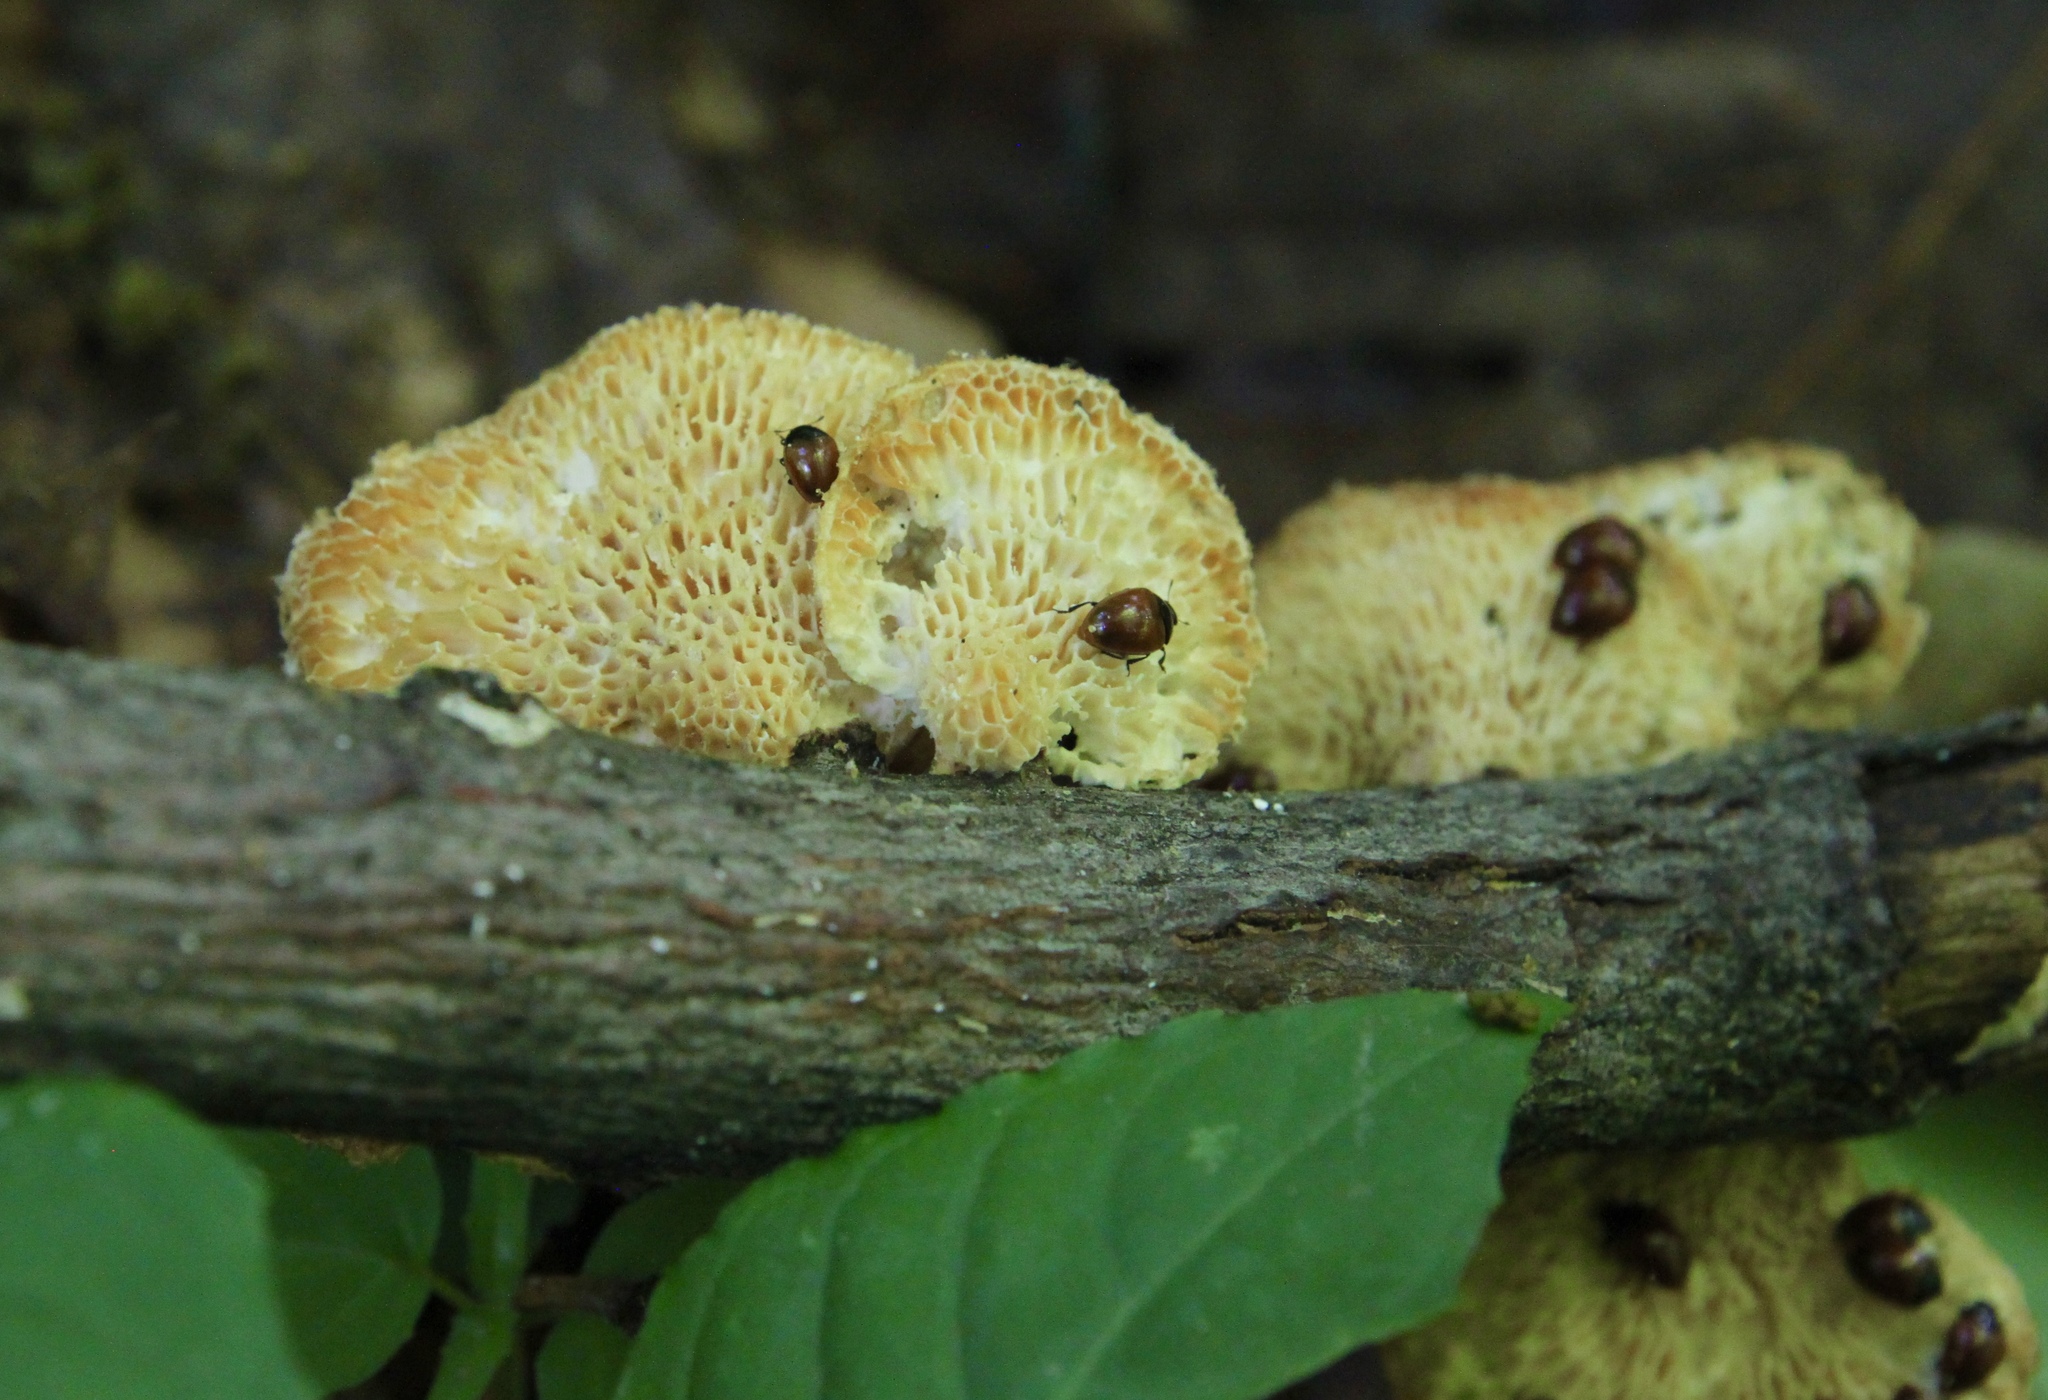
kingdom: Fungi
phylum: Basidiomycota
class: Agaricomycetes
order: Polyporales
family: Polyporaceae
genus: Neofavolus
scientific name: Neofavolus alveolaris
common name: Hexagonal-pored polypore
